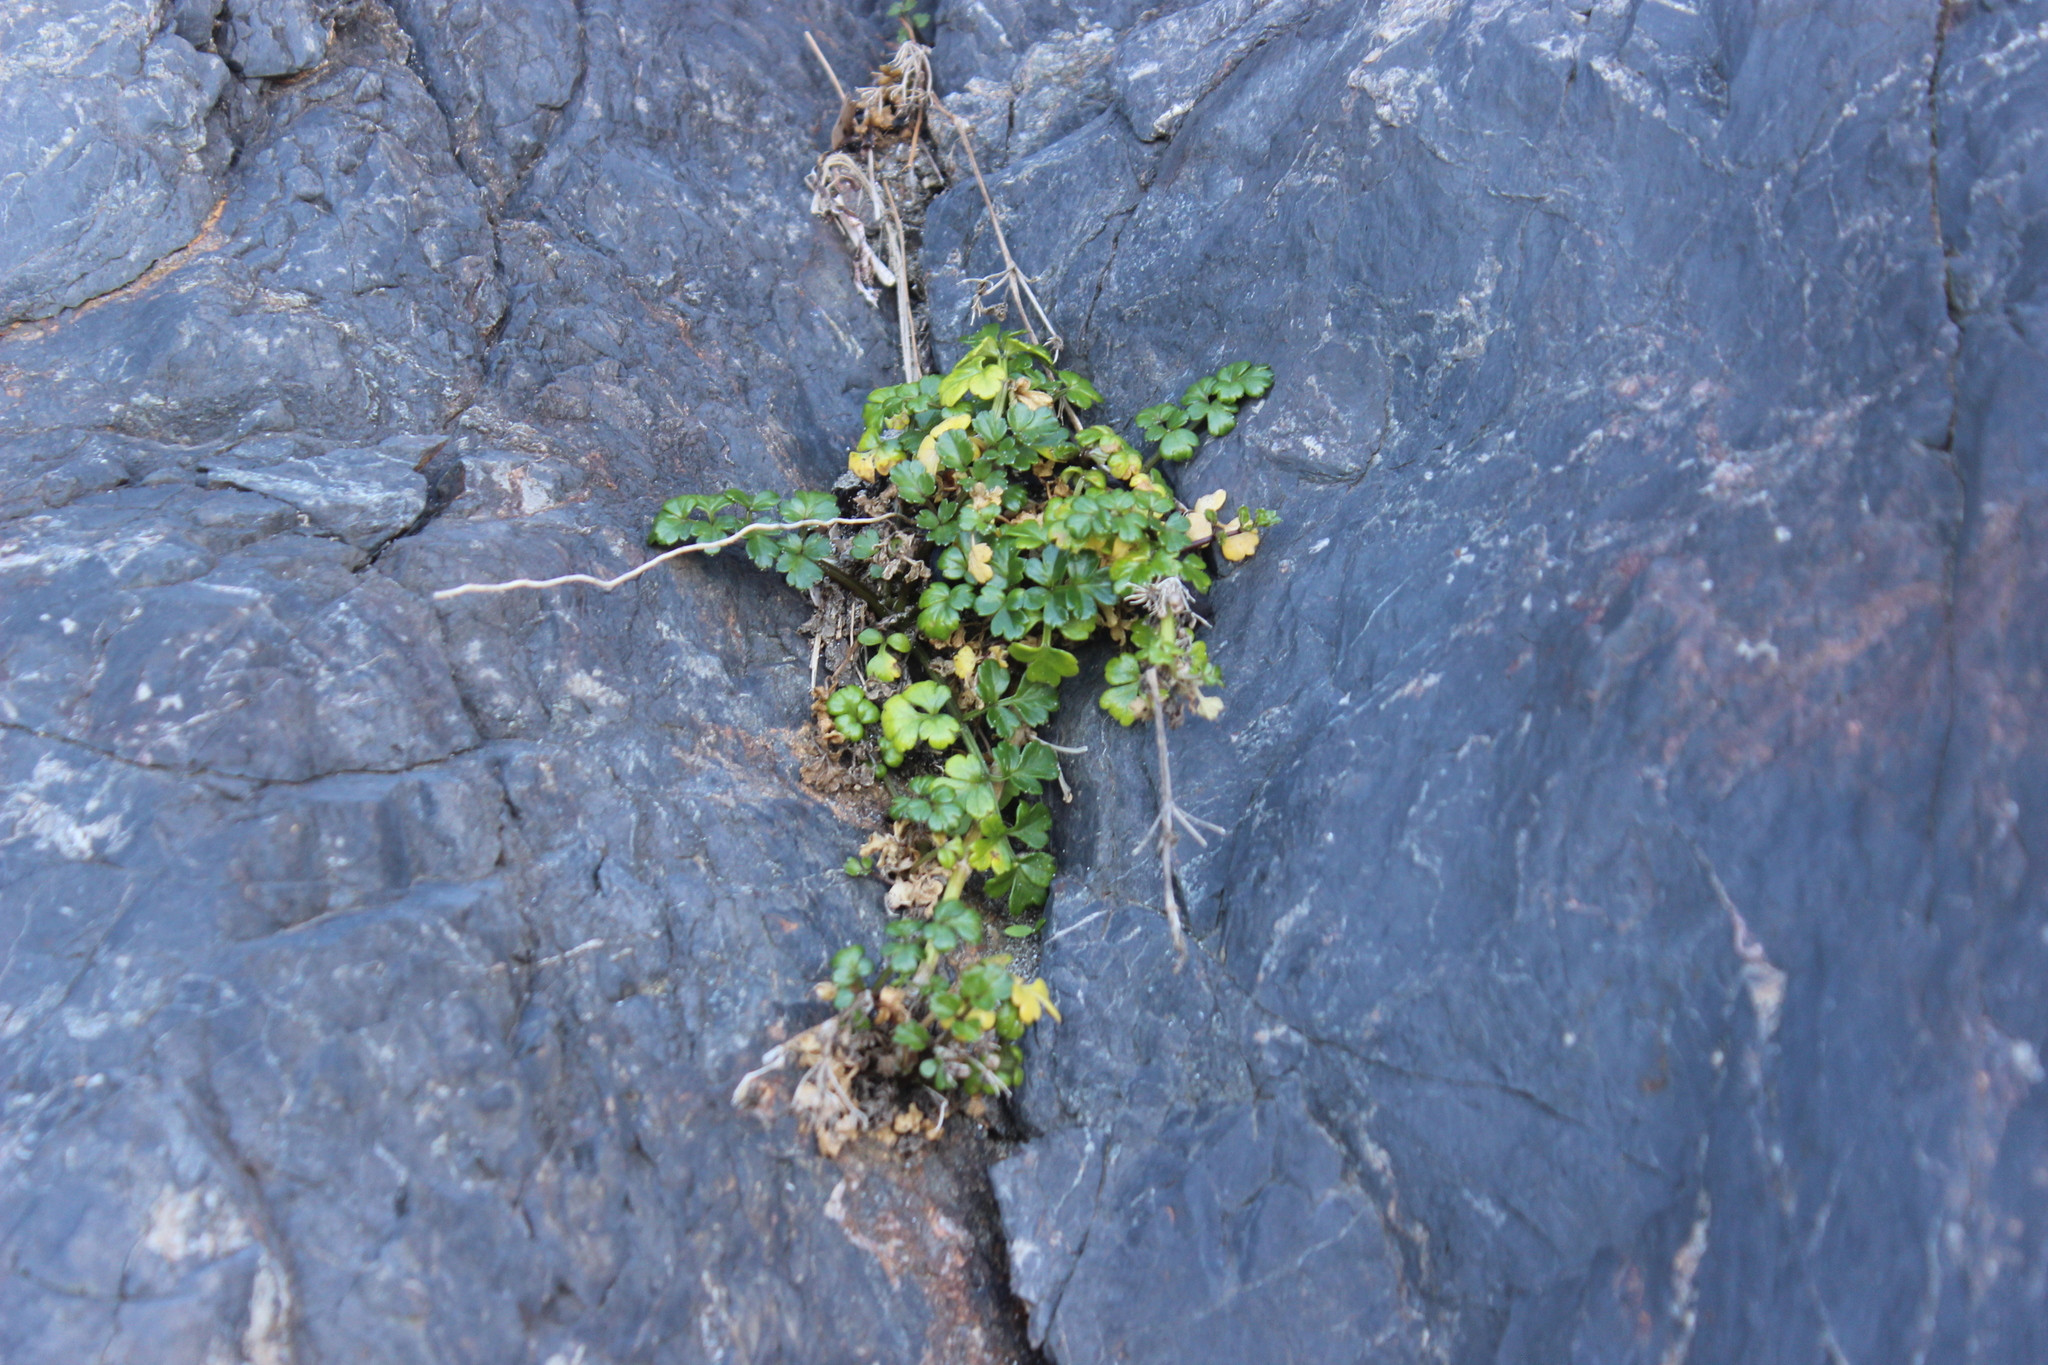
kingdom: Plantae
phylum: Tracheophyta
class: Magnoliopsida
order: Apiales
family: Apiaceae
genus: Apium
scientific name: Apium prostratum
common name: Prostrate marshwort
